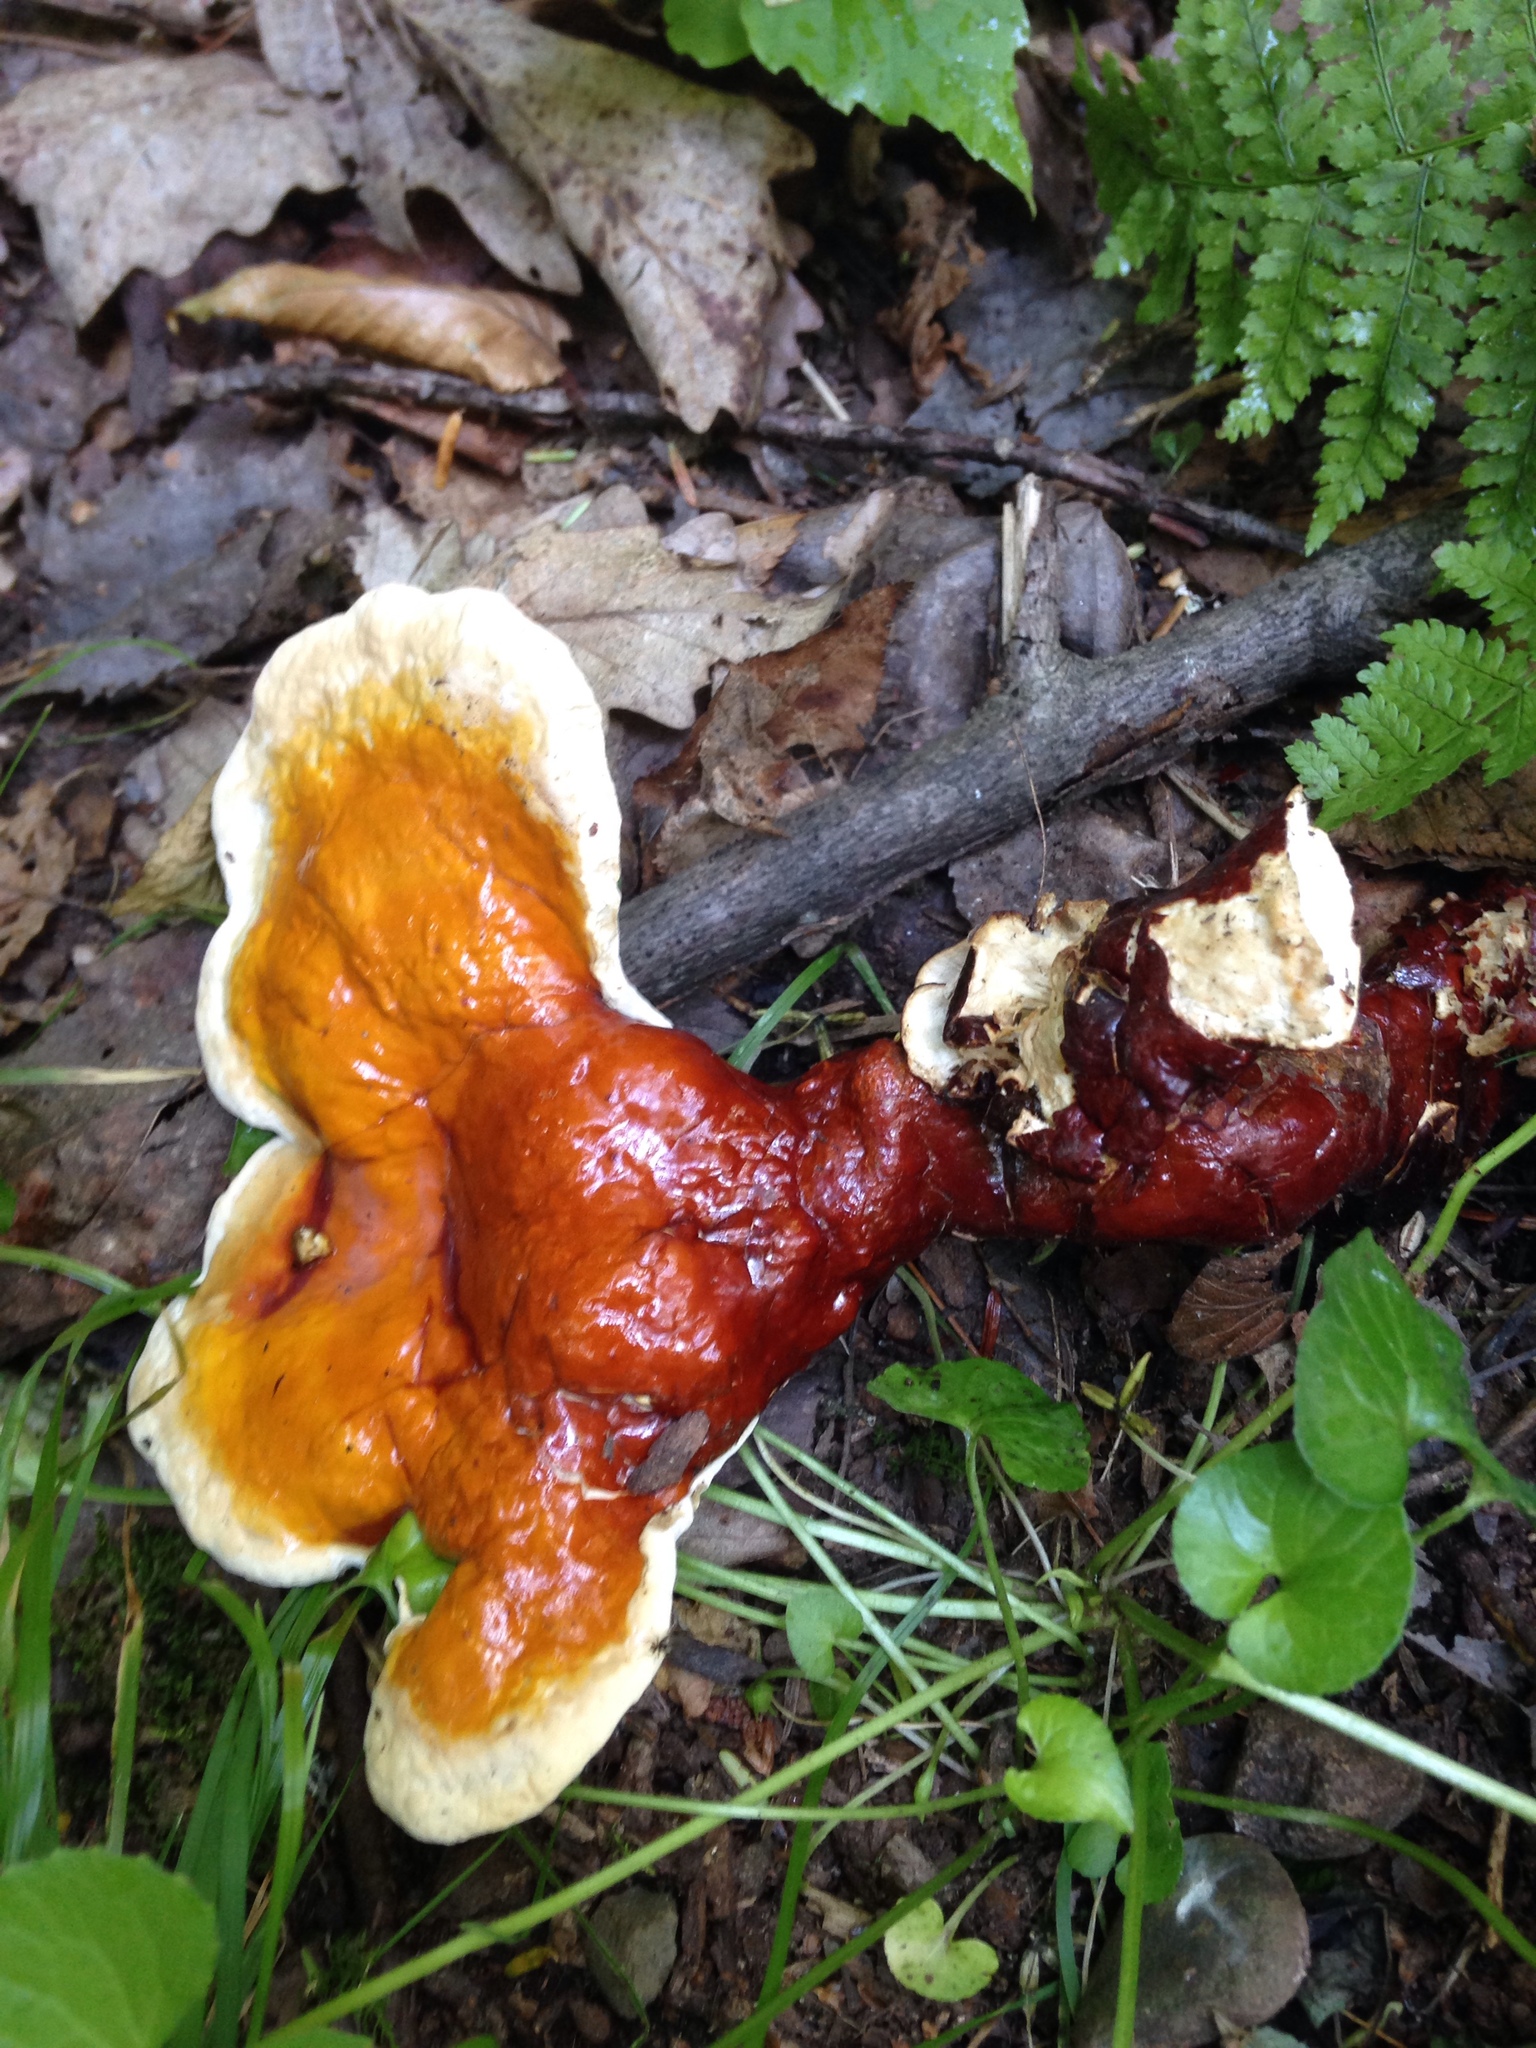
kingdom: Fungi
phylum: Basidiomycota
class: Agaricomycetes
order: Polyporales
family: Polyporaceae
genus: Ganoderma
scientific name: Ganoderma tsugae
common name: Hemlock varnish shelf
